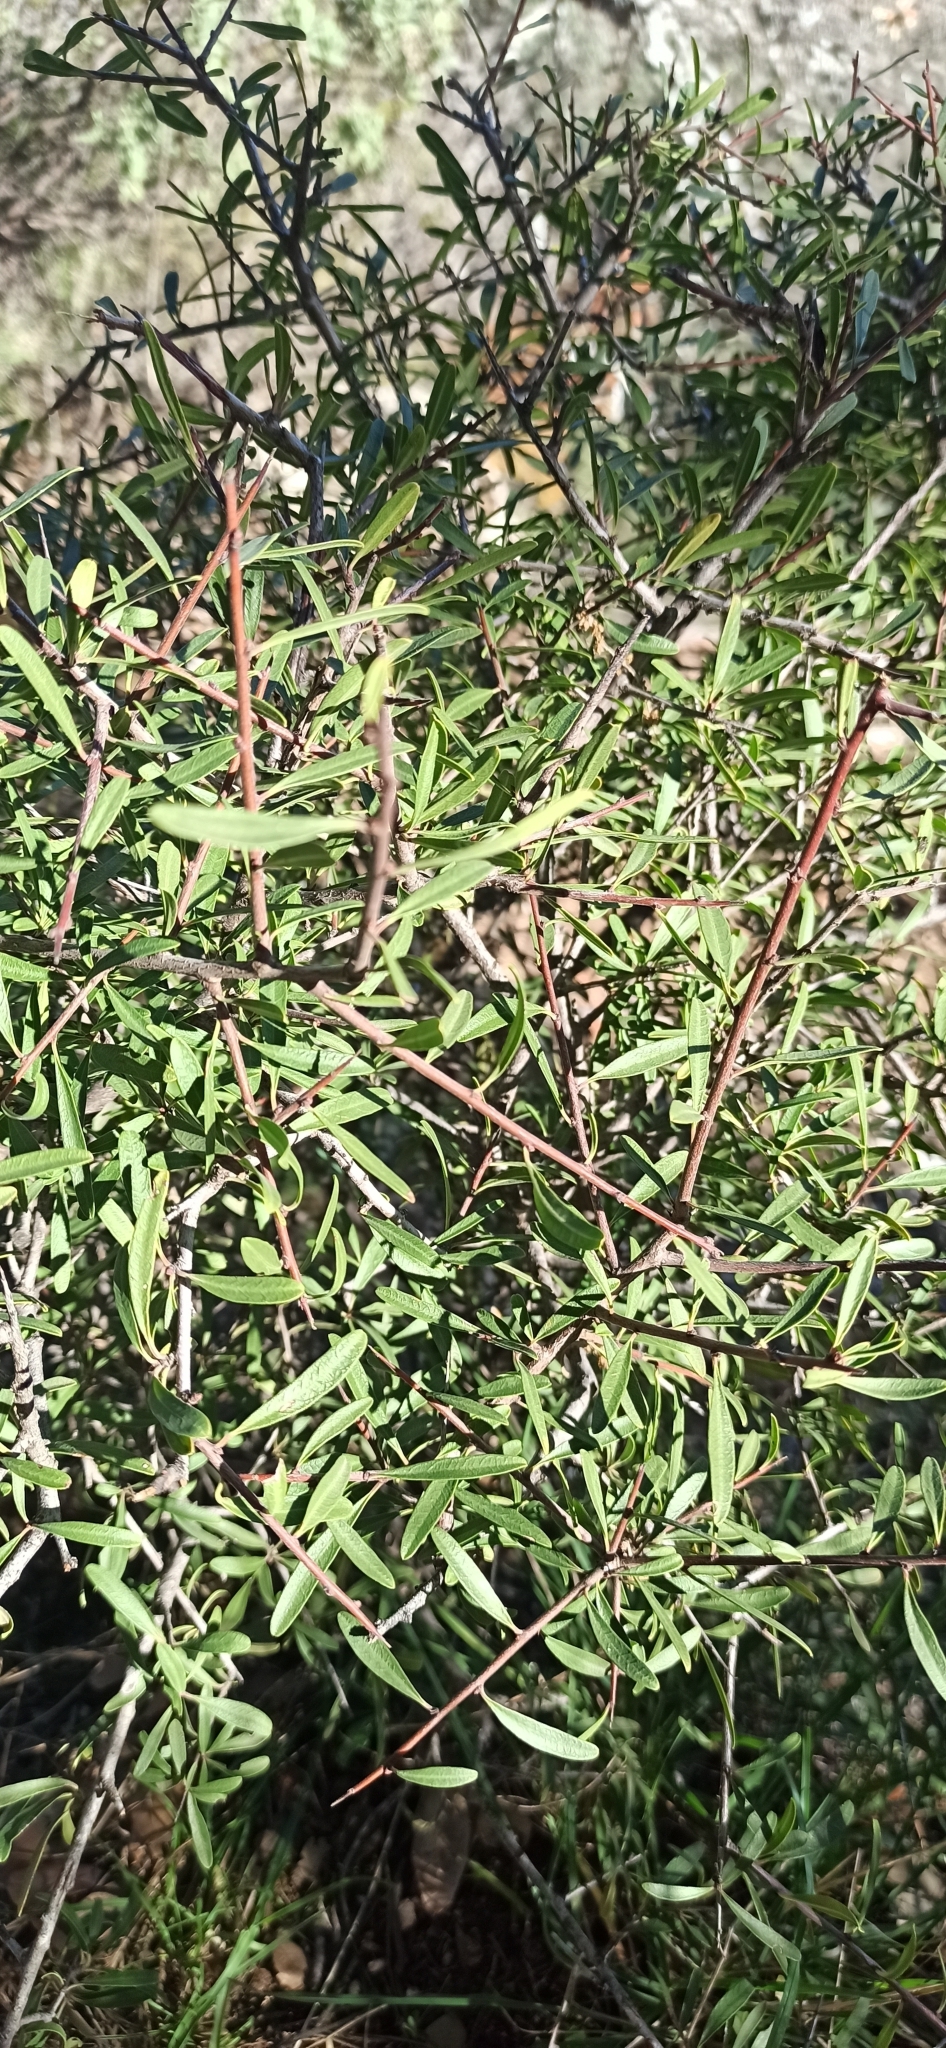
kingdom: Plantae
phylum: Tracheophyta
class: Magnoliopsida
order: Rosales
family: Rhamnaceae
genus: Rhamnus
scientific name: Rhamnus lycioides
